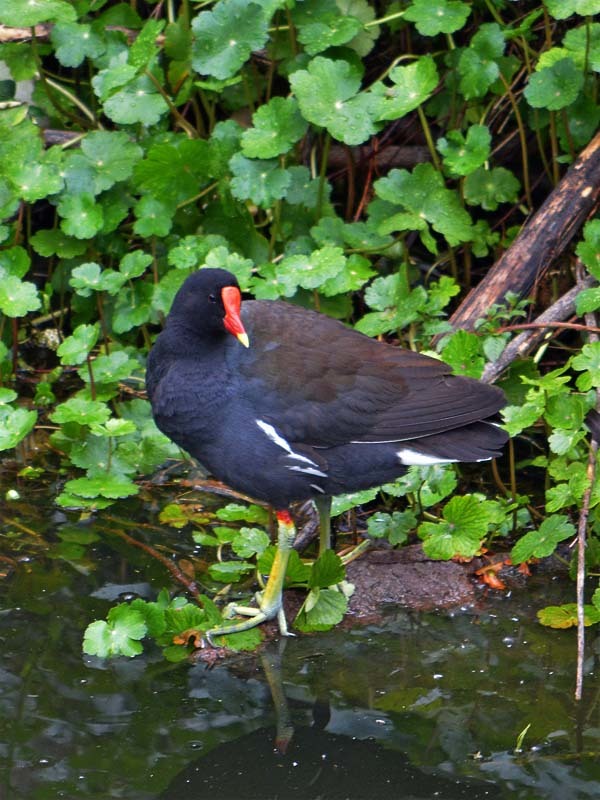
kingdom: Animalia
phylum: Chordata
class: Aves
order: Gruiformes
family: Rallidae
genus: Gallinula
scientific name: Gallinula chloropus
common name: Common moorhen
